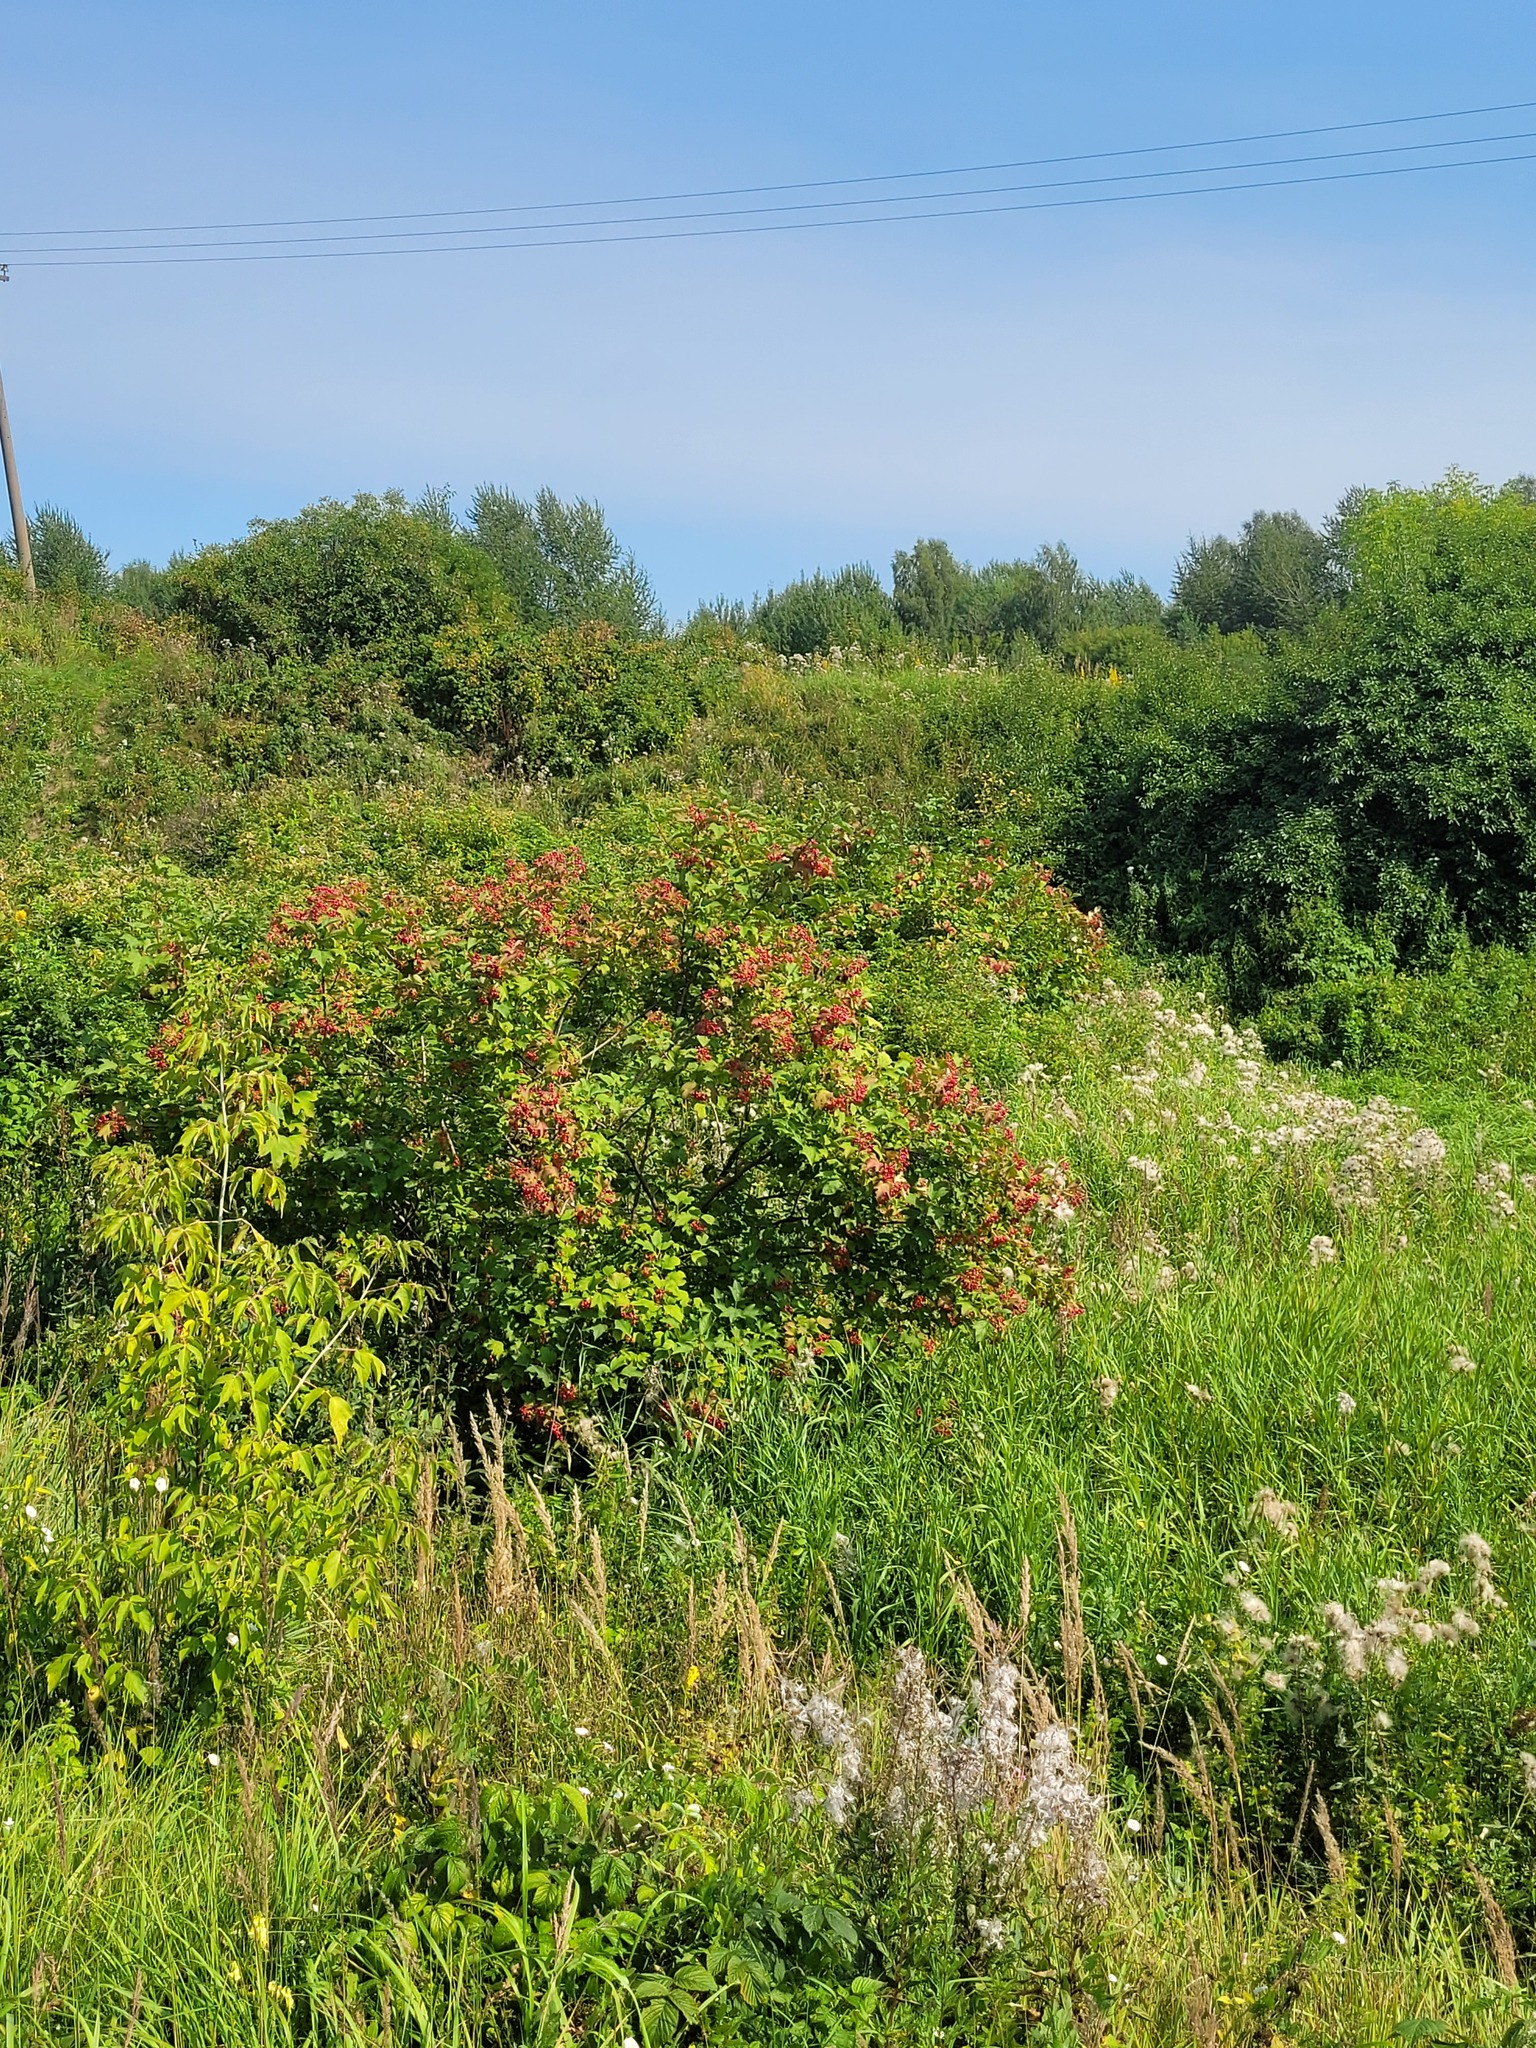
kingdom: Plantae
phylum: Tracheophyta
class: Magnoliopsida
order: Dipsacales
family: Viburnaceae
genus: Viburnum
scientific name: Viburnum opulus
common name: Guelder-rose
